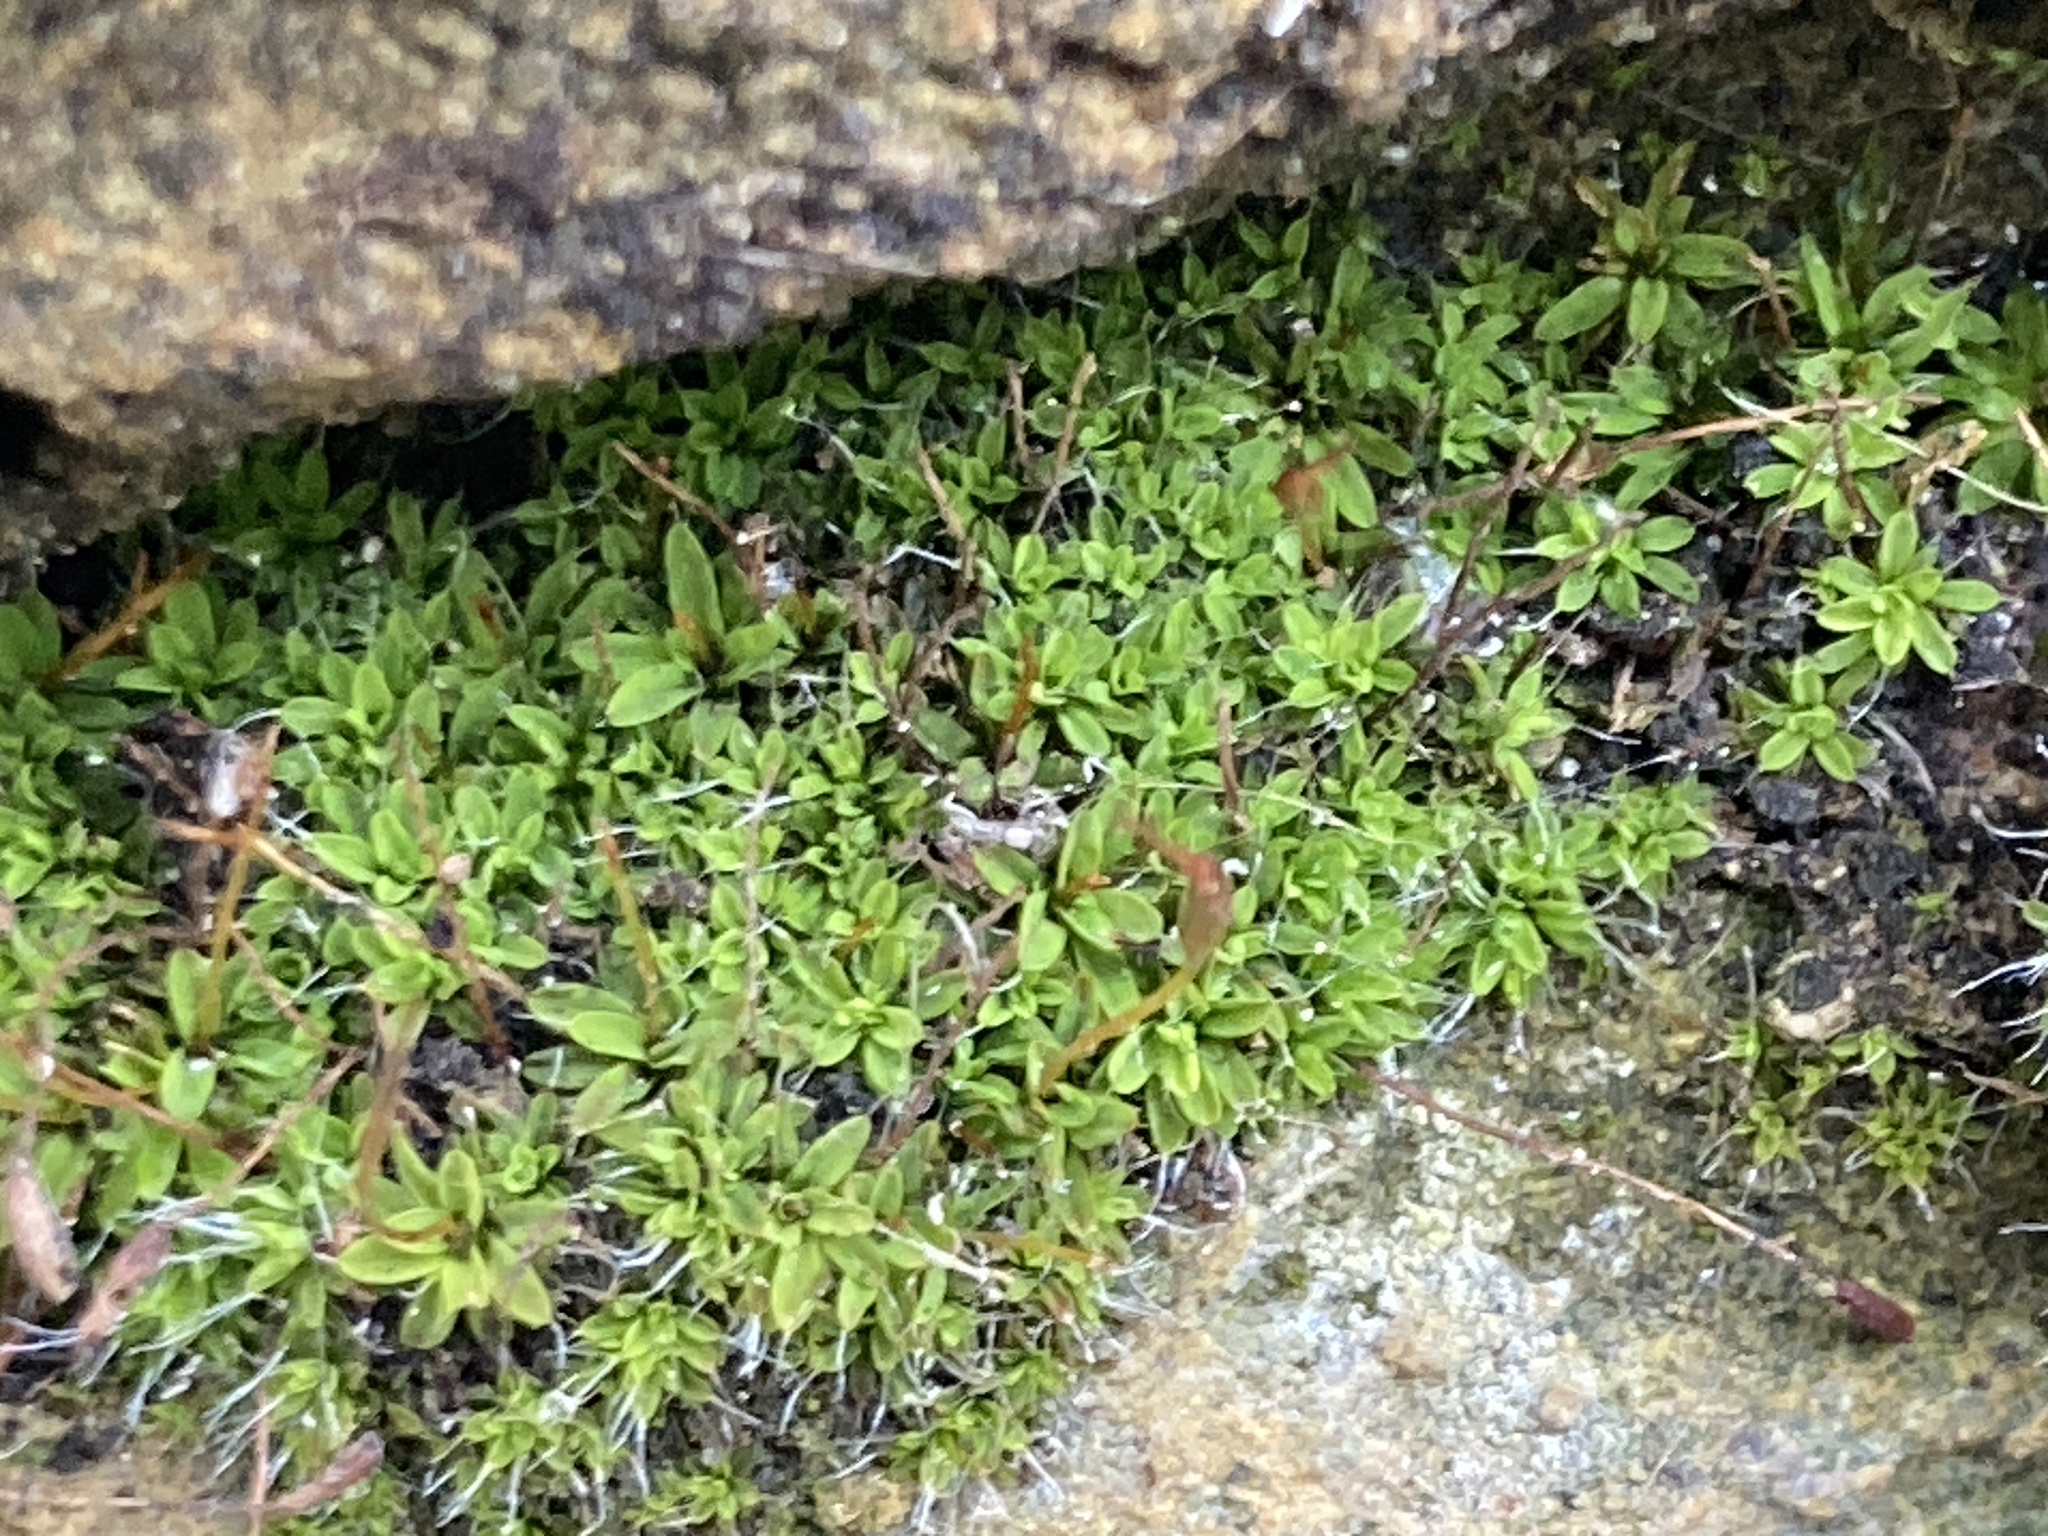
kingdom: Plantae
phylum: Bryophyta
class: Bryopsida
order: Pottiales
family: Pottiaceae
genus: Tortula
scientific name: Tortula muralis
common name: Wall screw-moss
